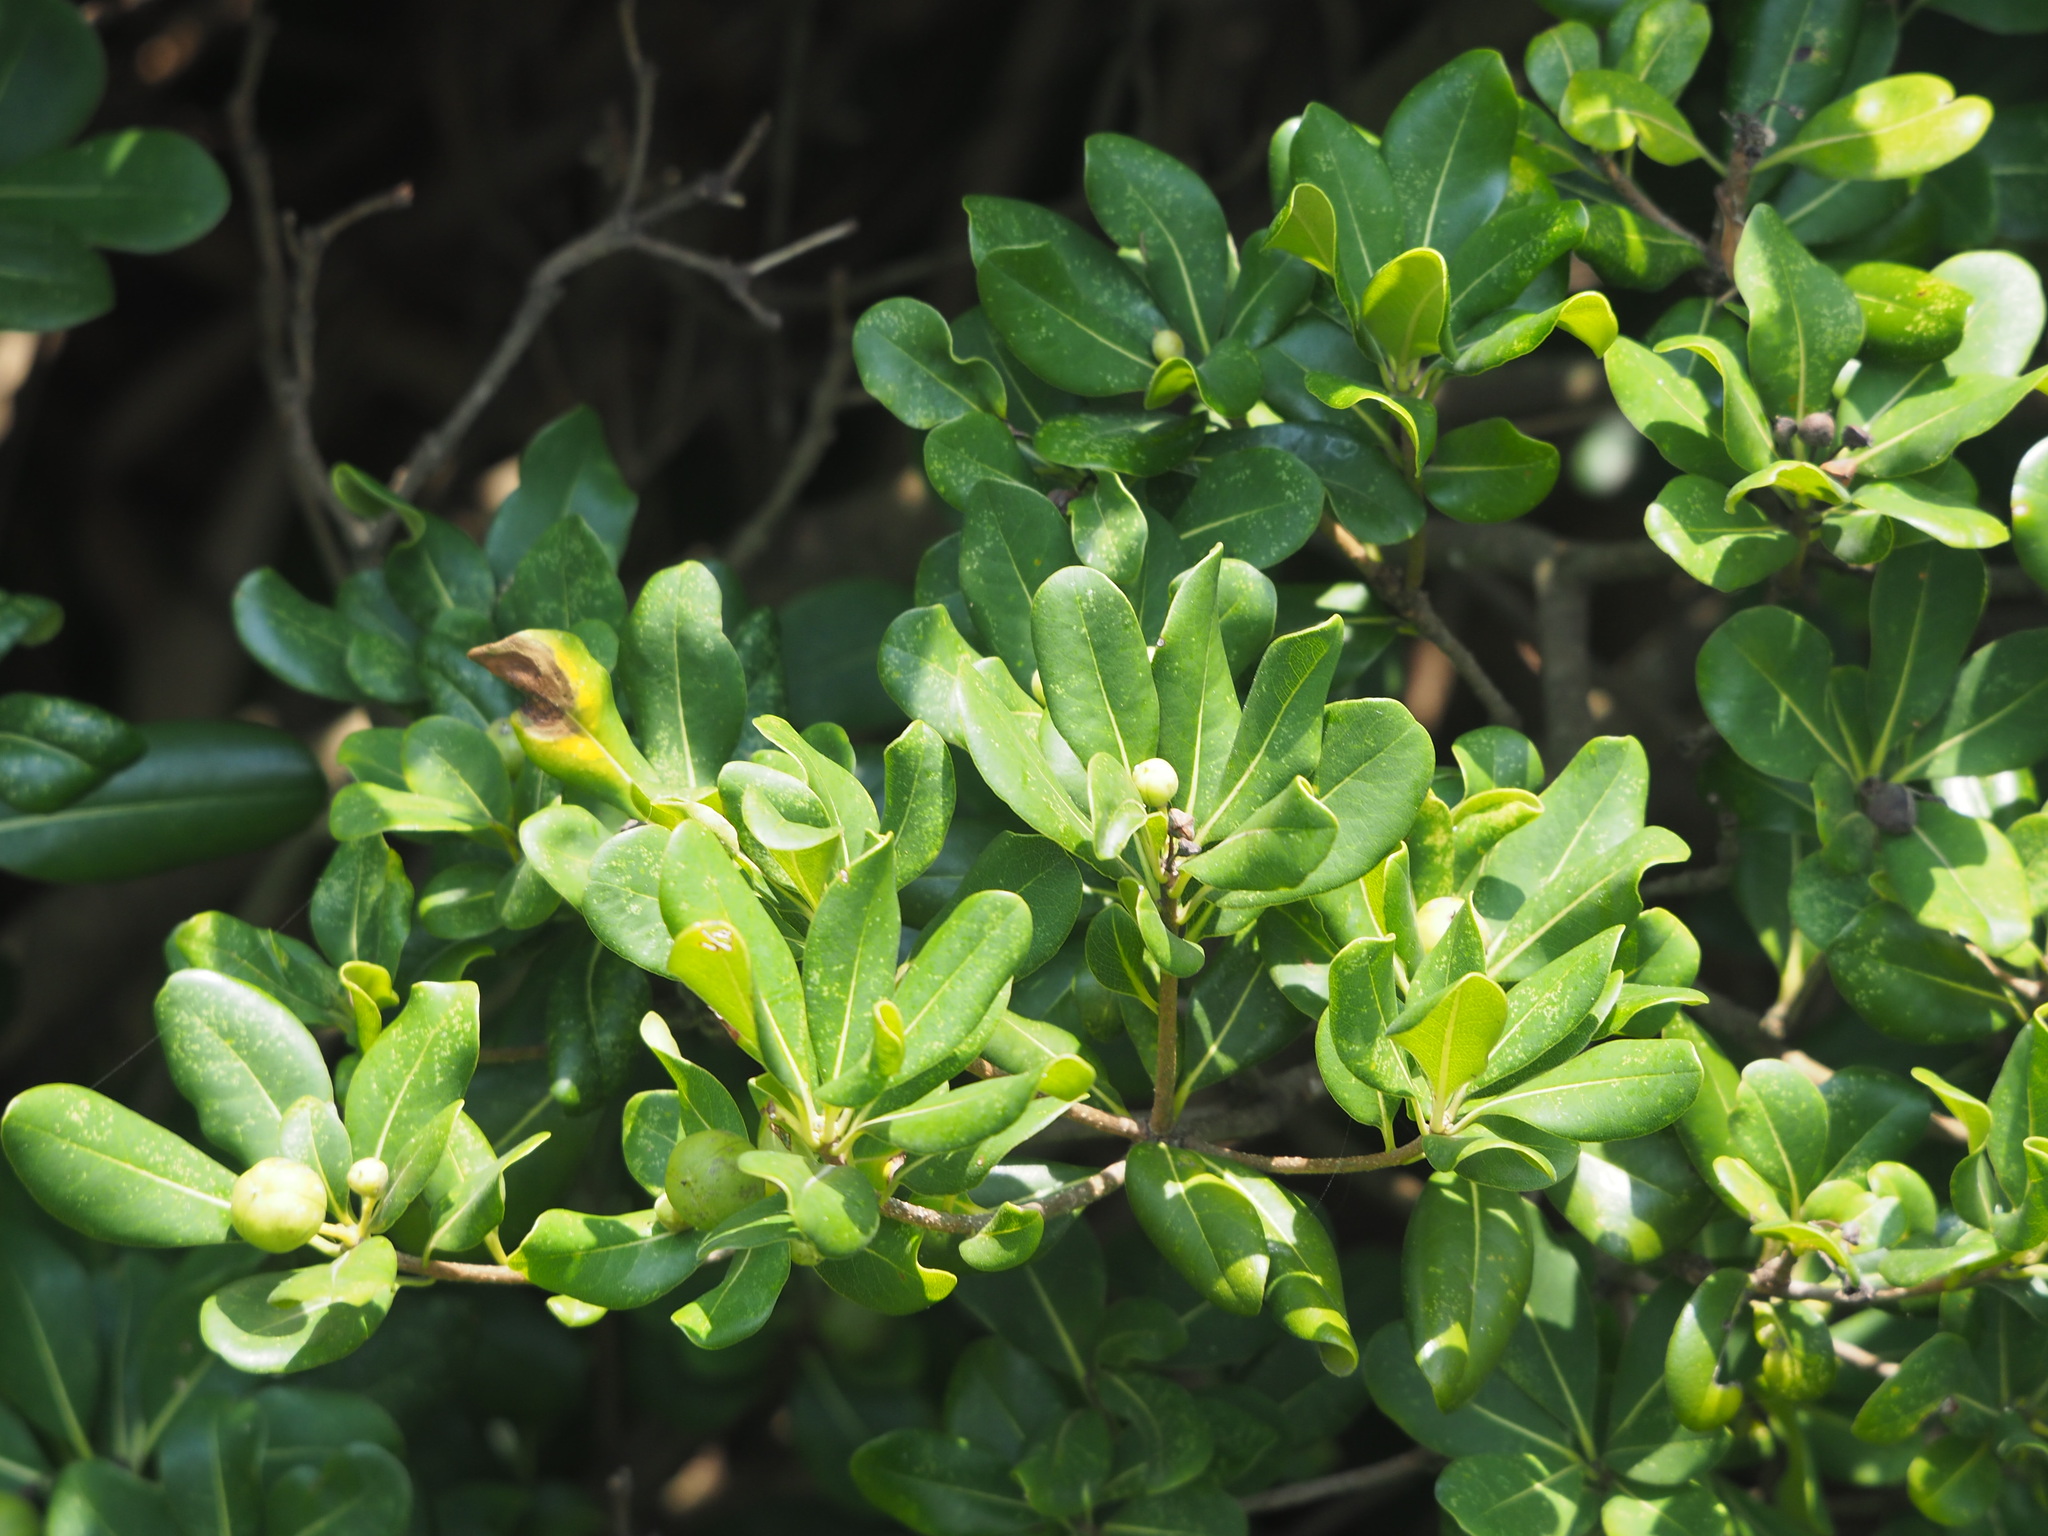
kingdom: Plantae
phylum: Tracheophyta
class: Magnoliopsida
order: Apiales
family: Pittosporaceae
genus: Pittosporum
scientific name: Pittosporum tobira
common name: Japanese cheesewood
